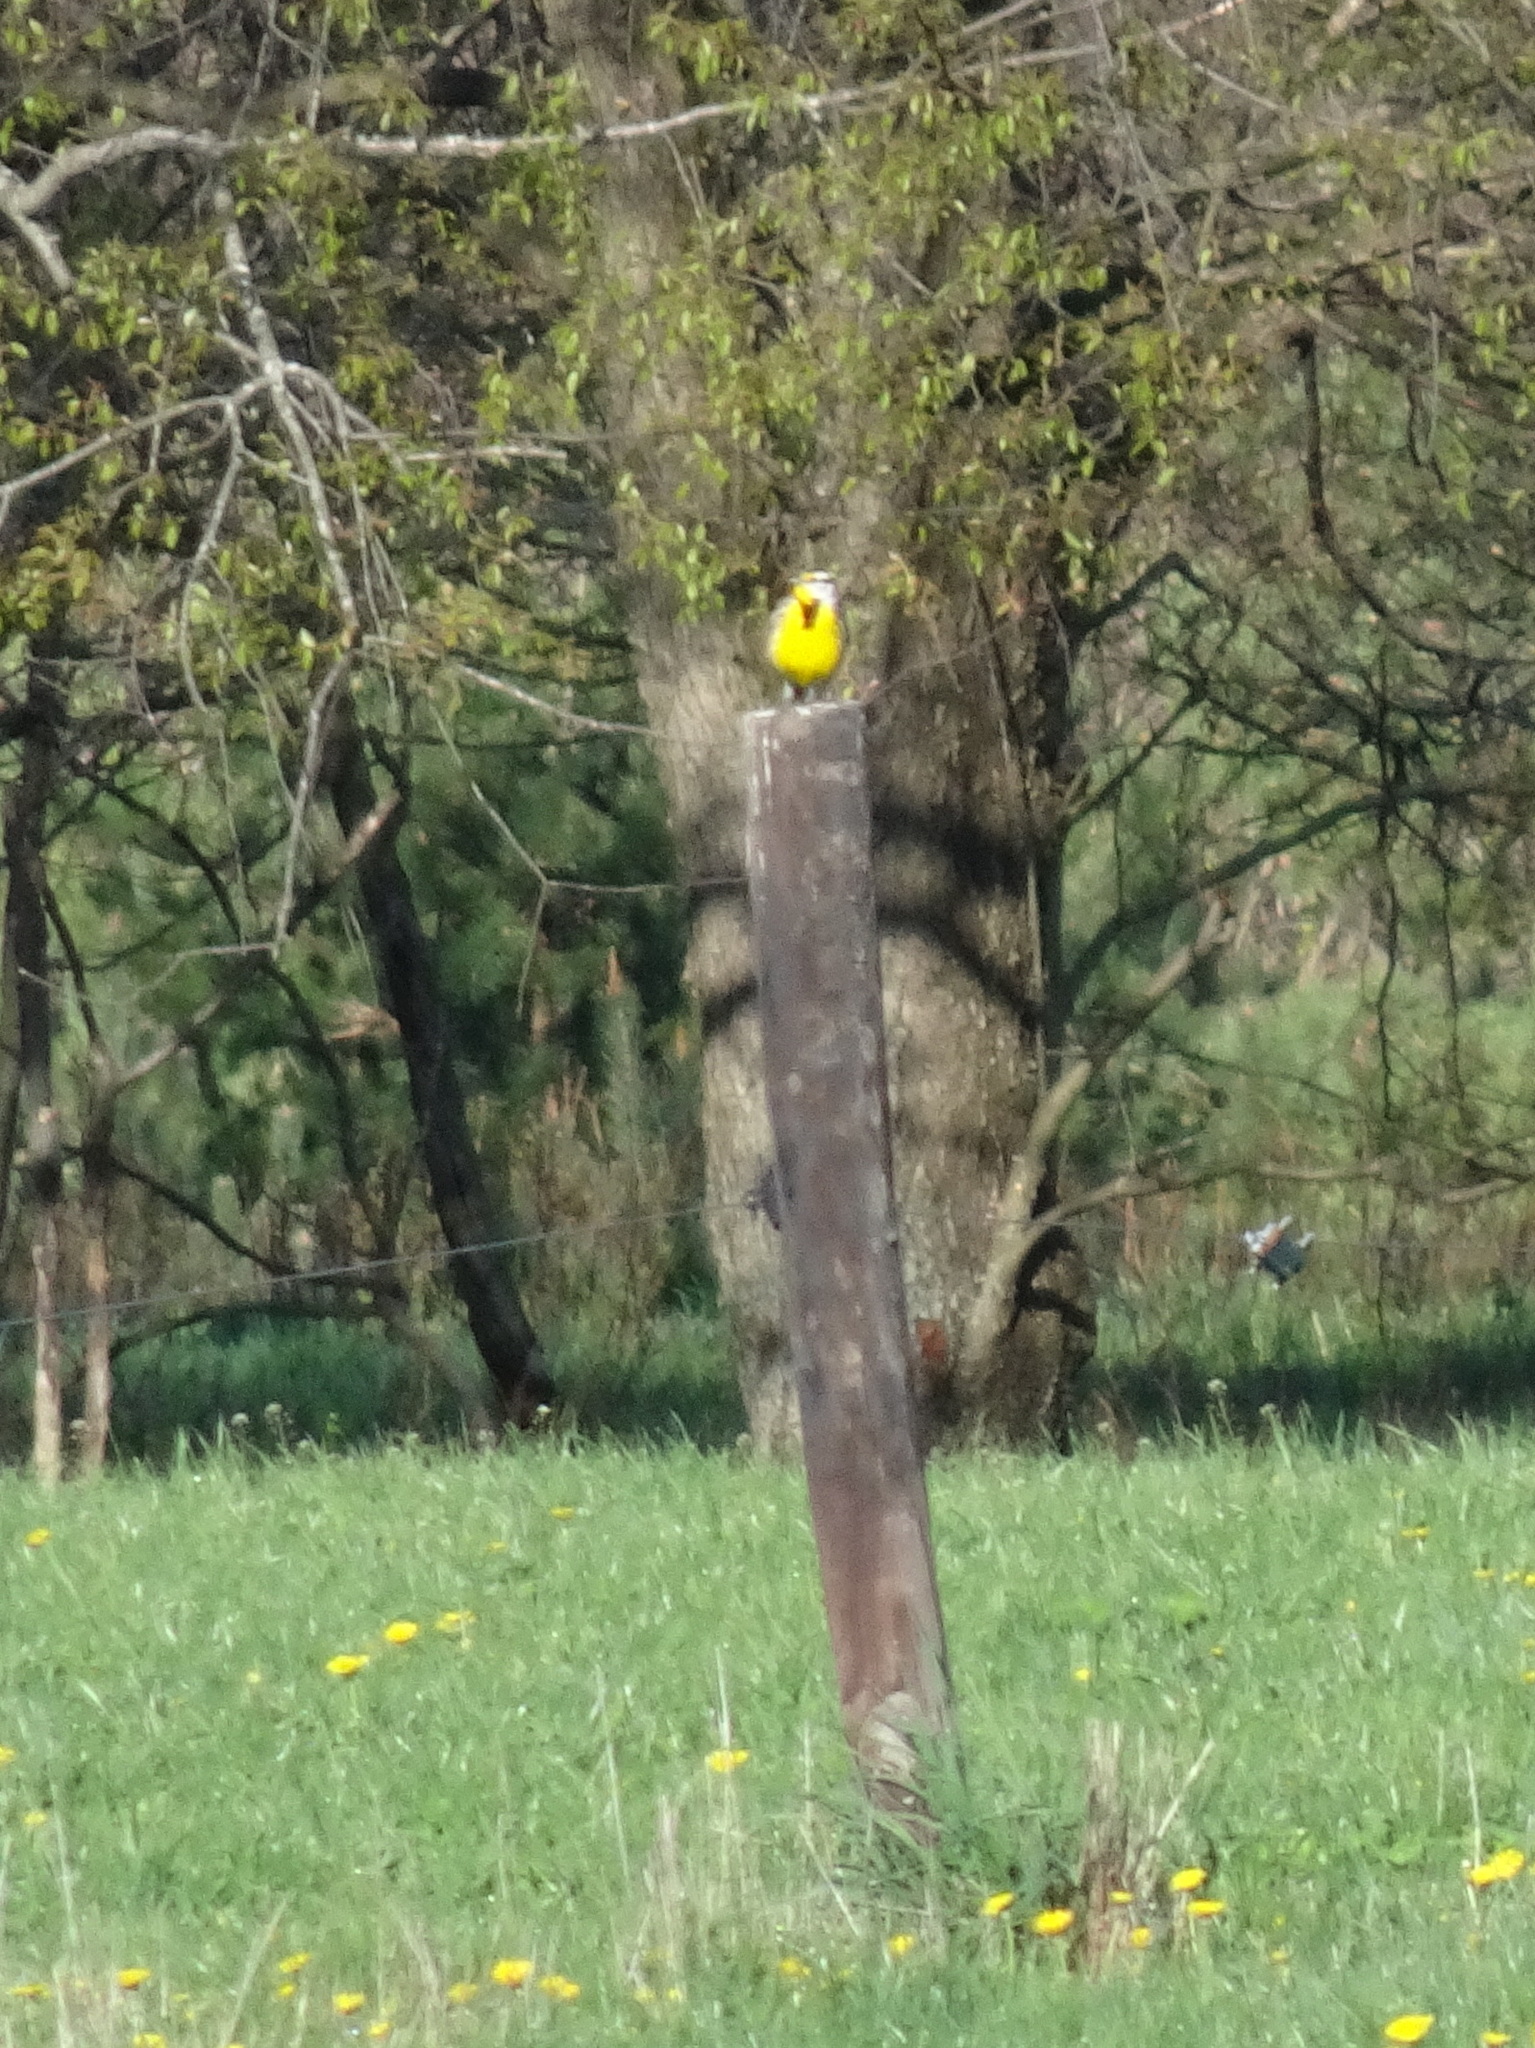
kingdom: Animalia
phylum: Chordata
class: Aves
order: Passeriformes
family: Icteridae
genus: Sturnella
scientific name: Sturnella magna
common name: Eastern meadowlark
